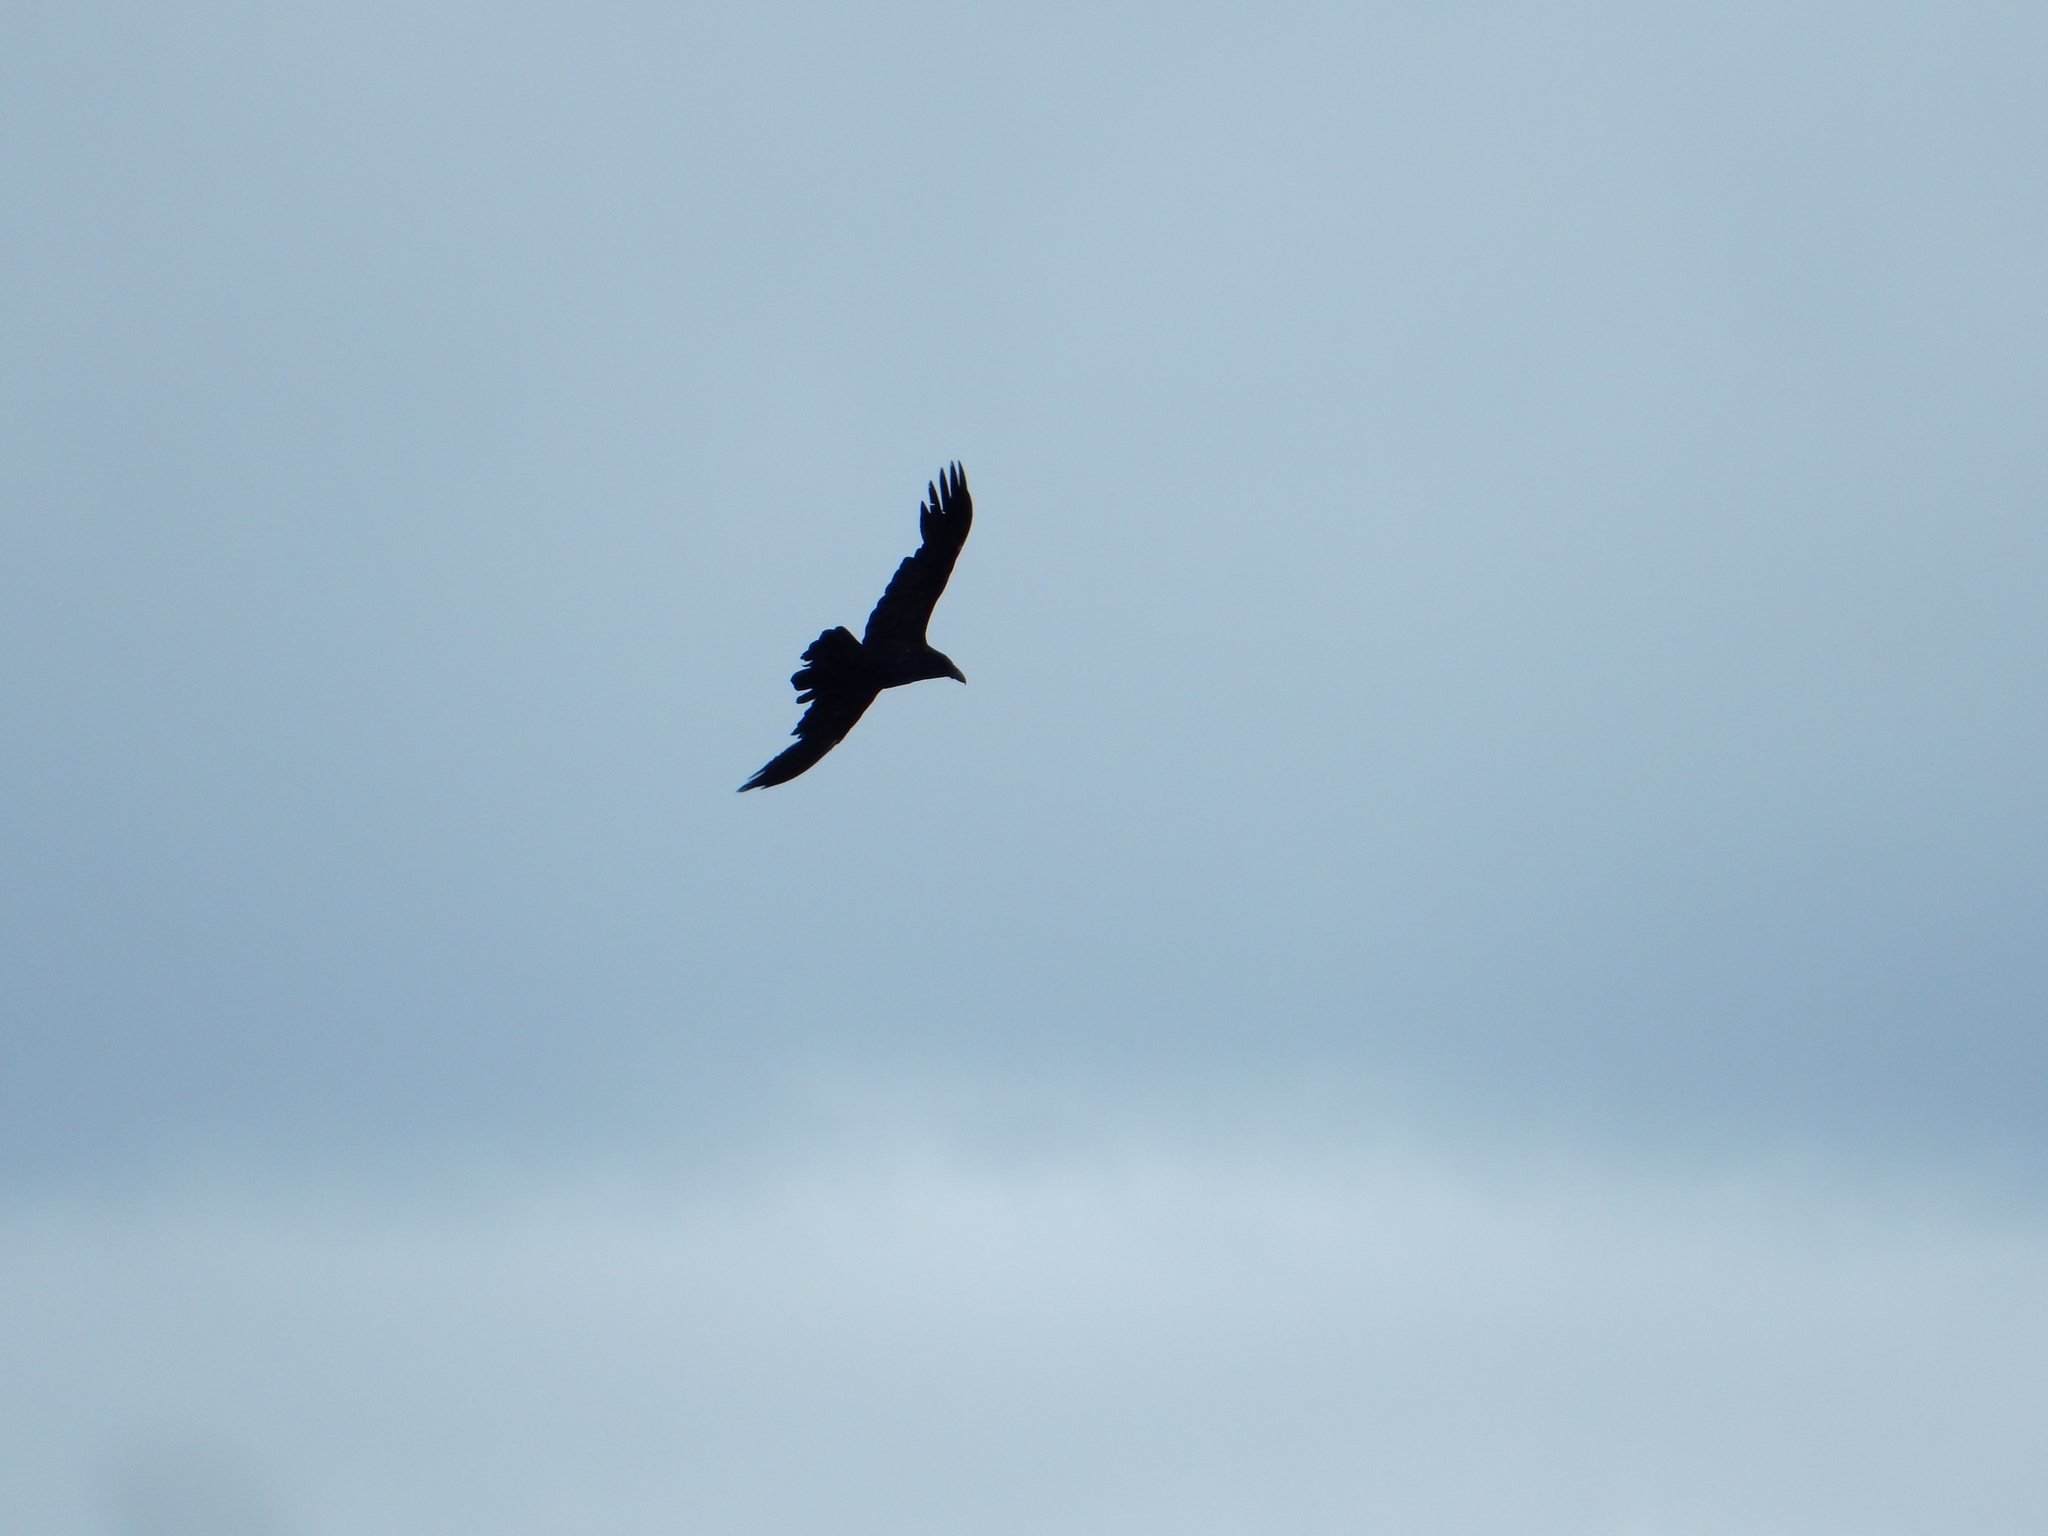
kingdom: Animalia
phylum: Chordata
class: Aves
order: Passeriformes
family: Corvidae
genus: Corvus
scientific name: Corvus corax
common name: Common raven
